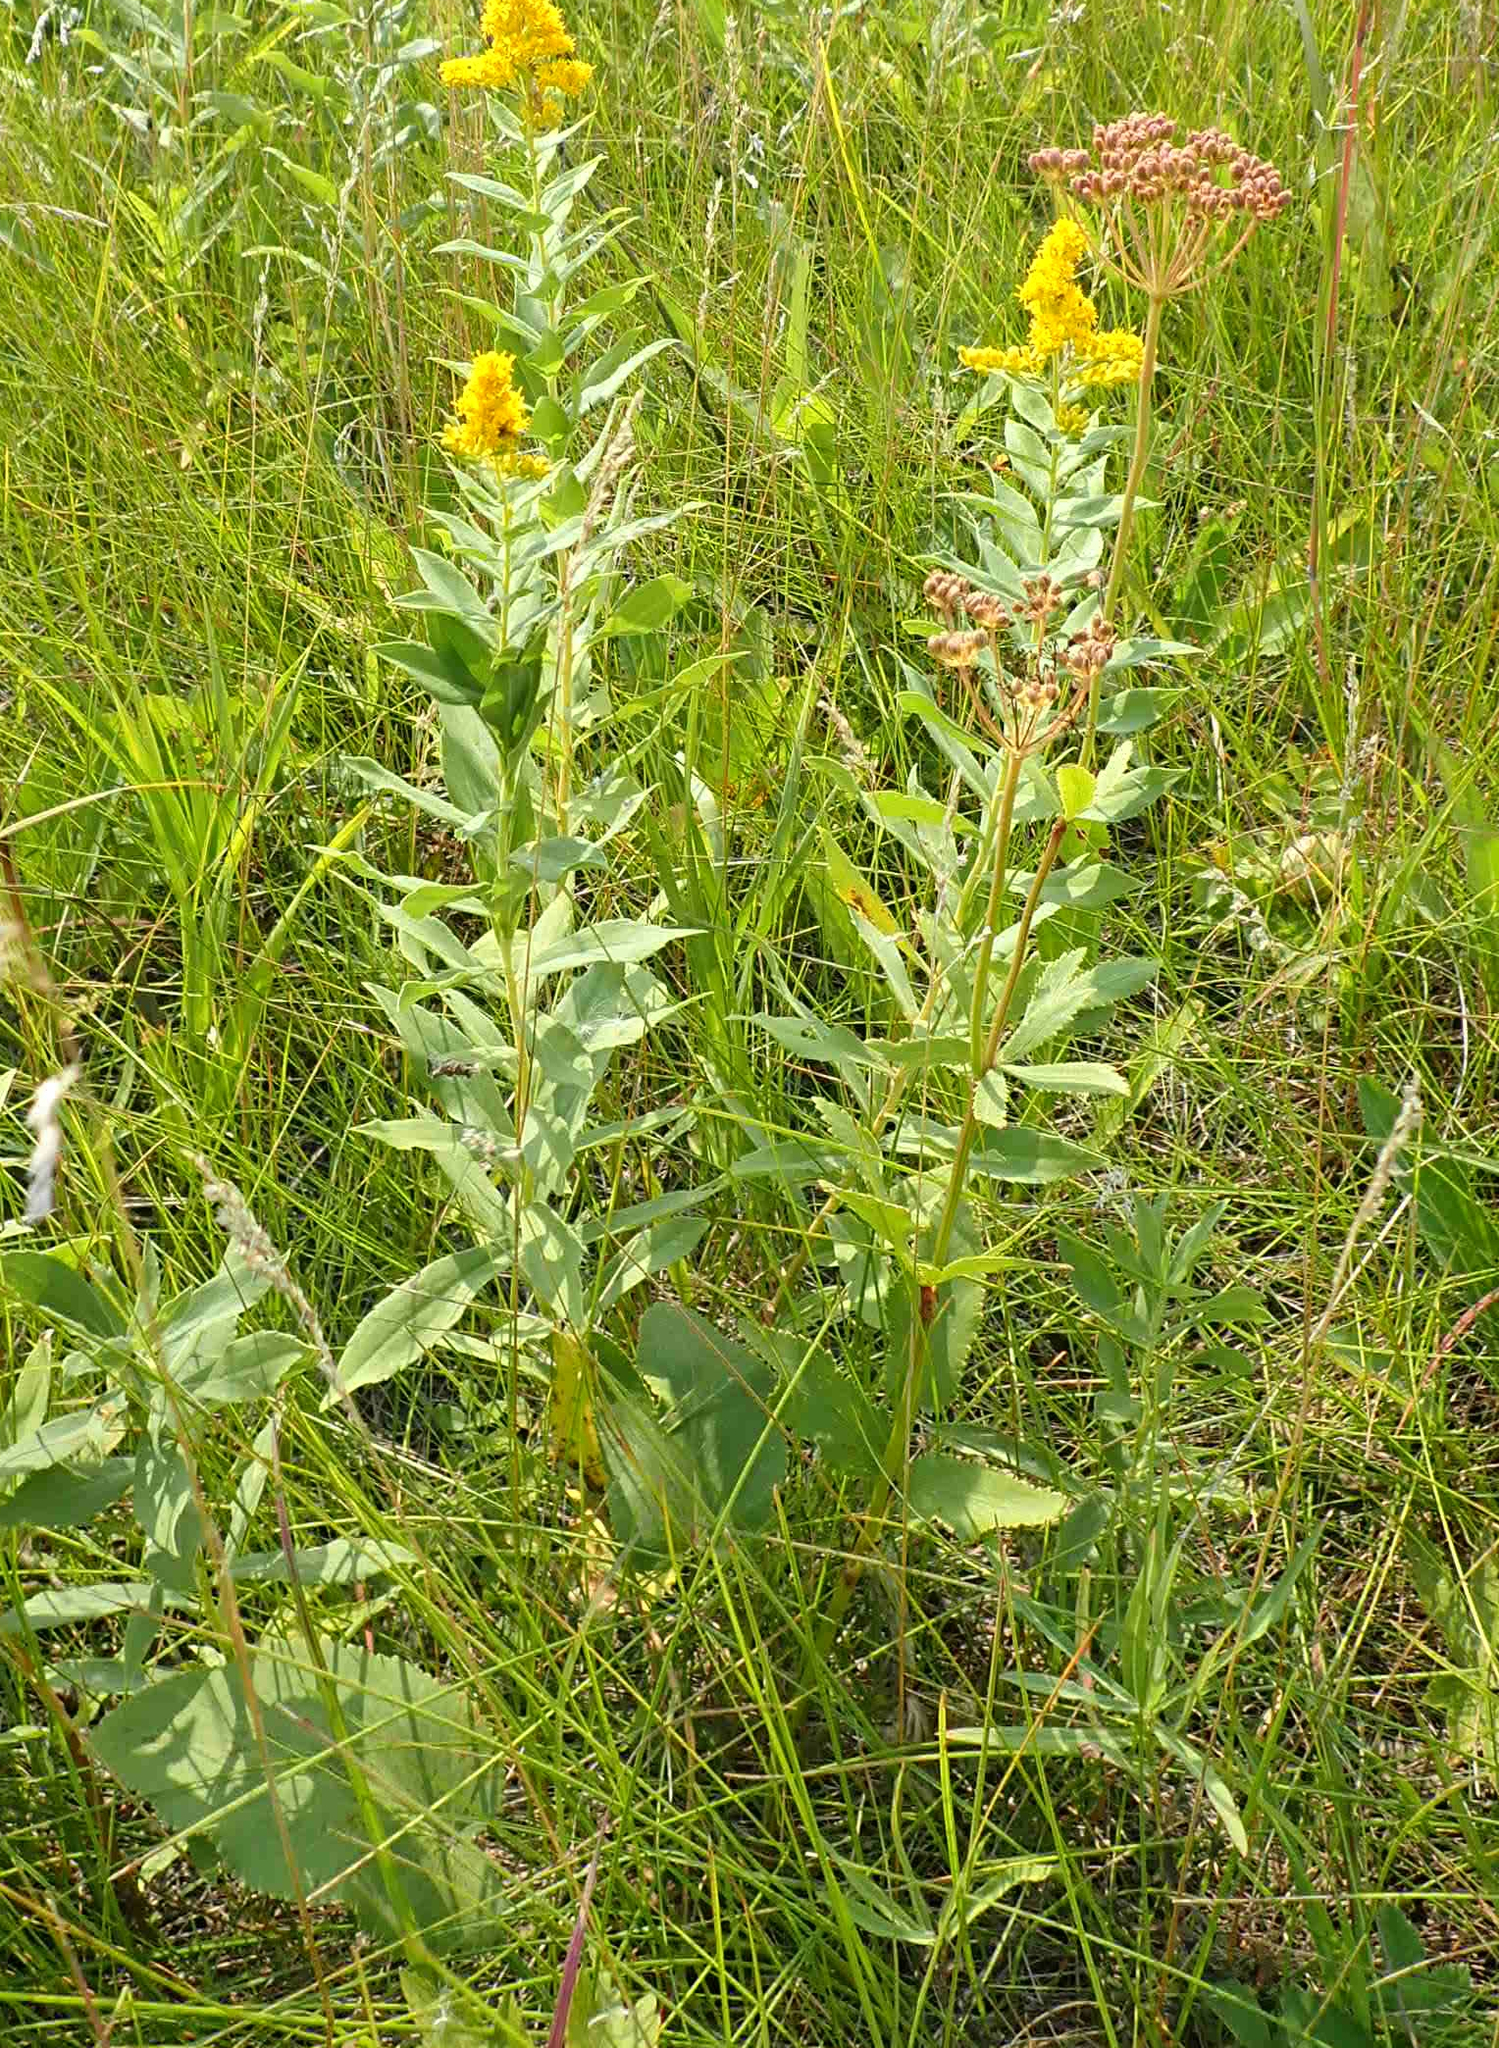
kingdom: Plantae
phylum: Tracheophyta
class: Magnoliopsida
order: Apiales
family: Apiaceae
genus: Zizia
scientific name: Zizia aptera
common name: Heart-leaved alexanders
